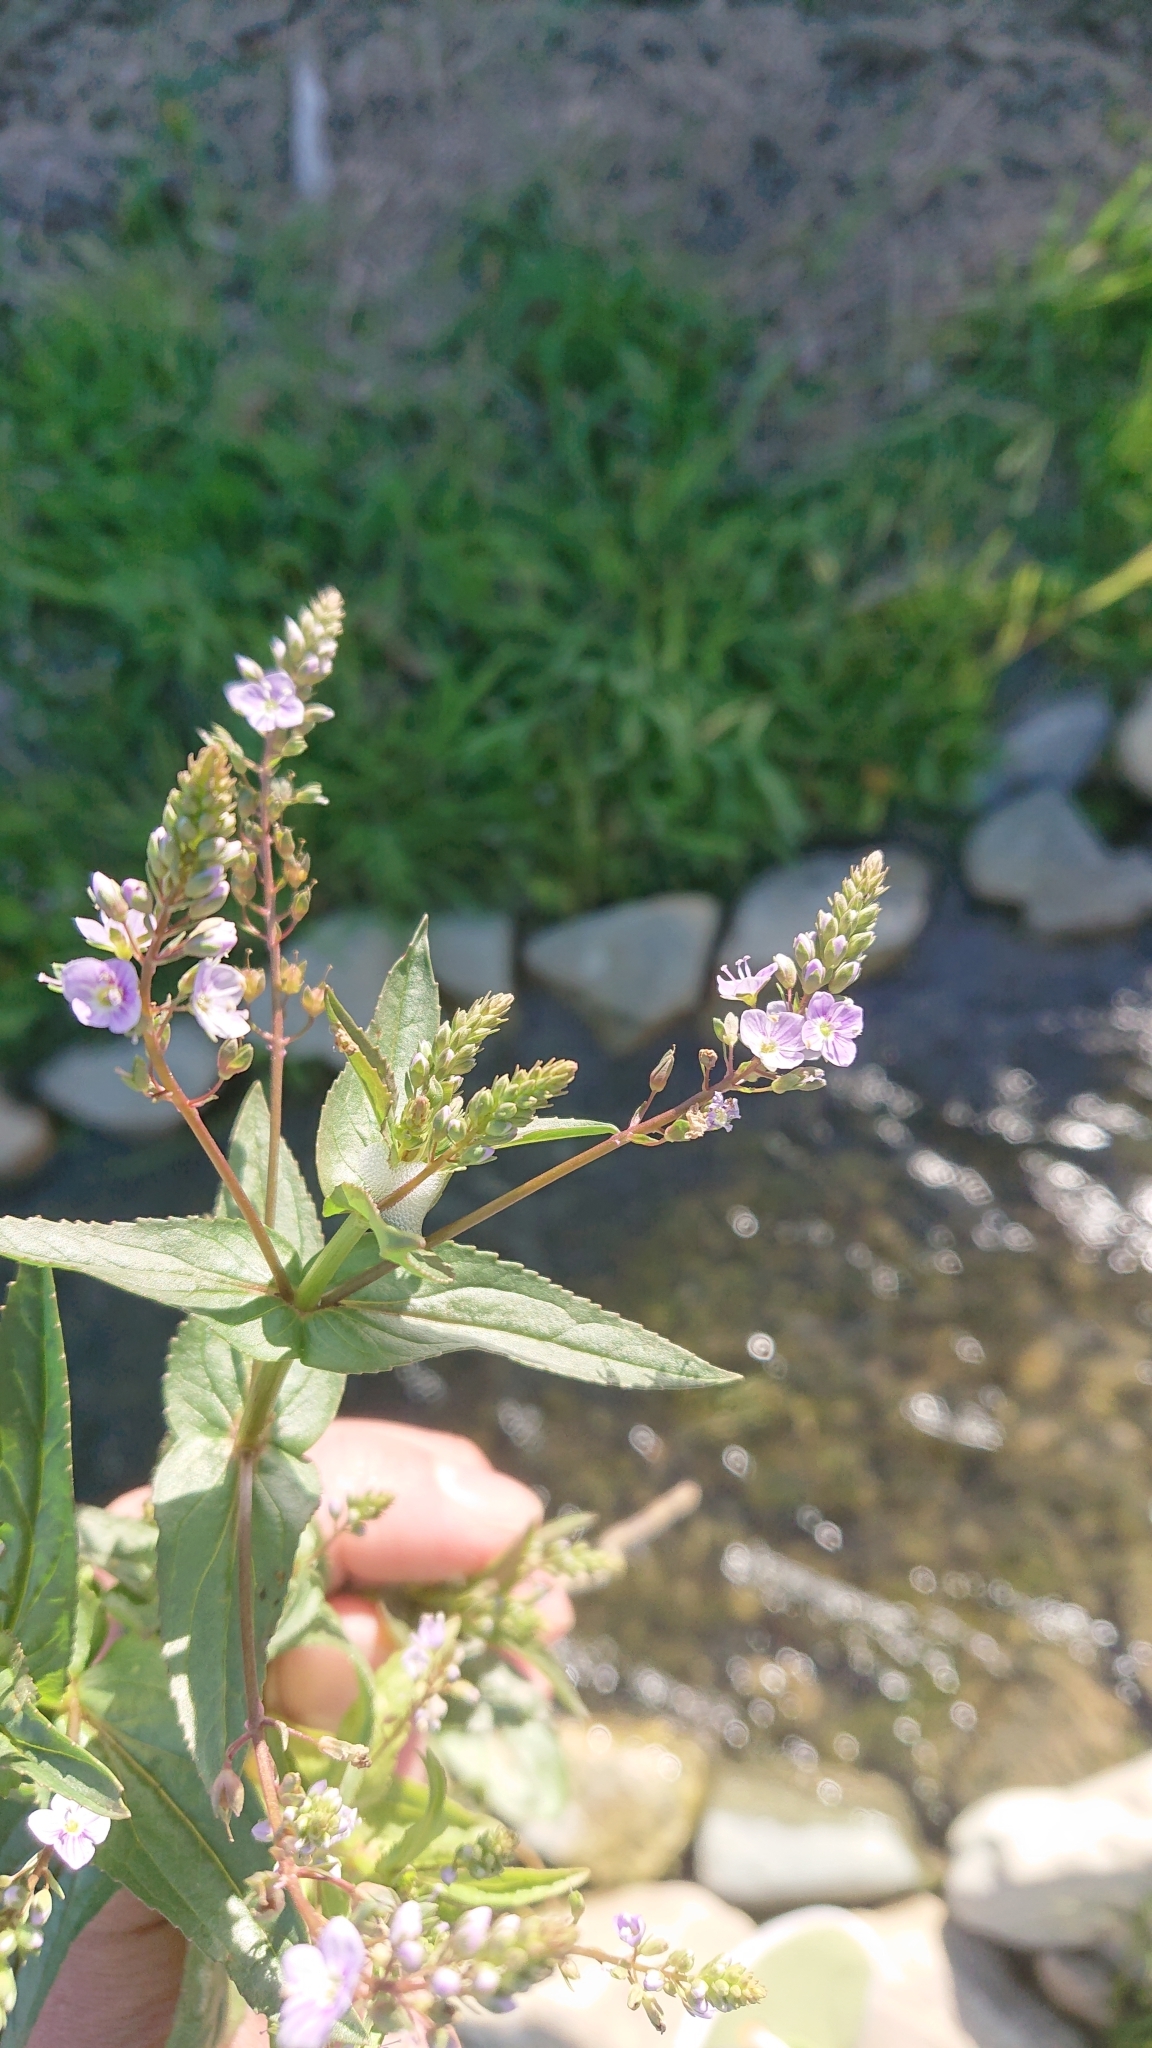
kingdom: Plantae
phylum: Tracheophyta
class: Magnoliopsida
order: Lamiales
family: Plantaginaceae
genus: Veronica
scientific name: Veronica anagallis-aquatica
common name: Water speedwell
